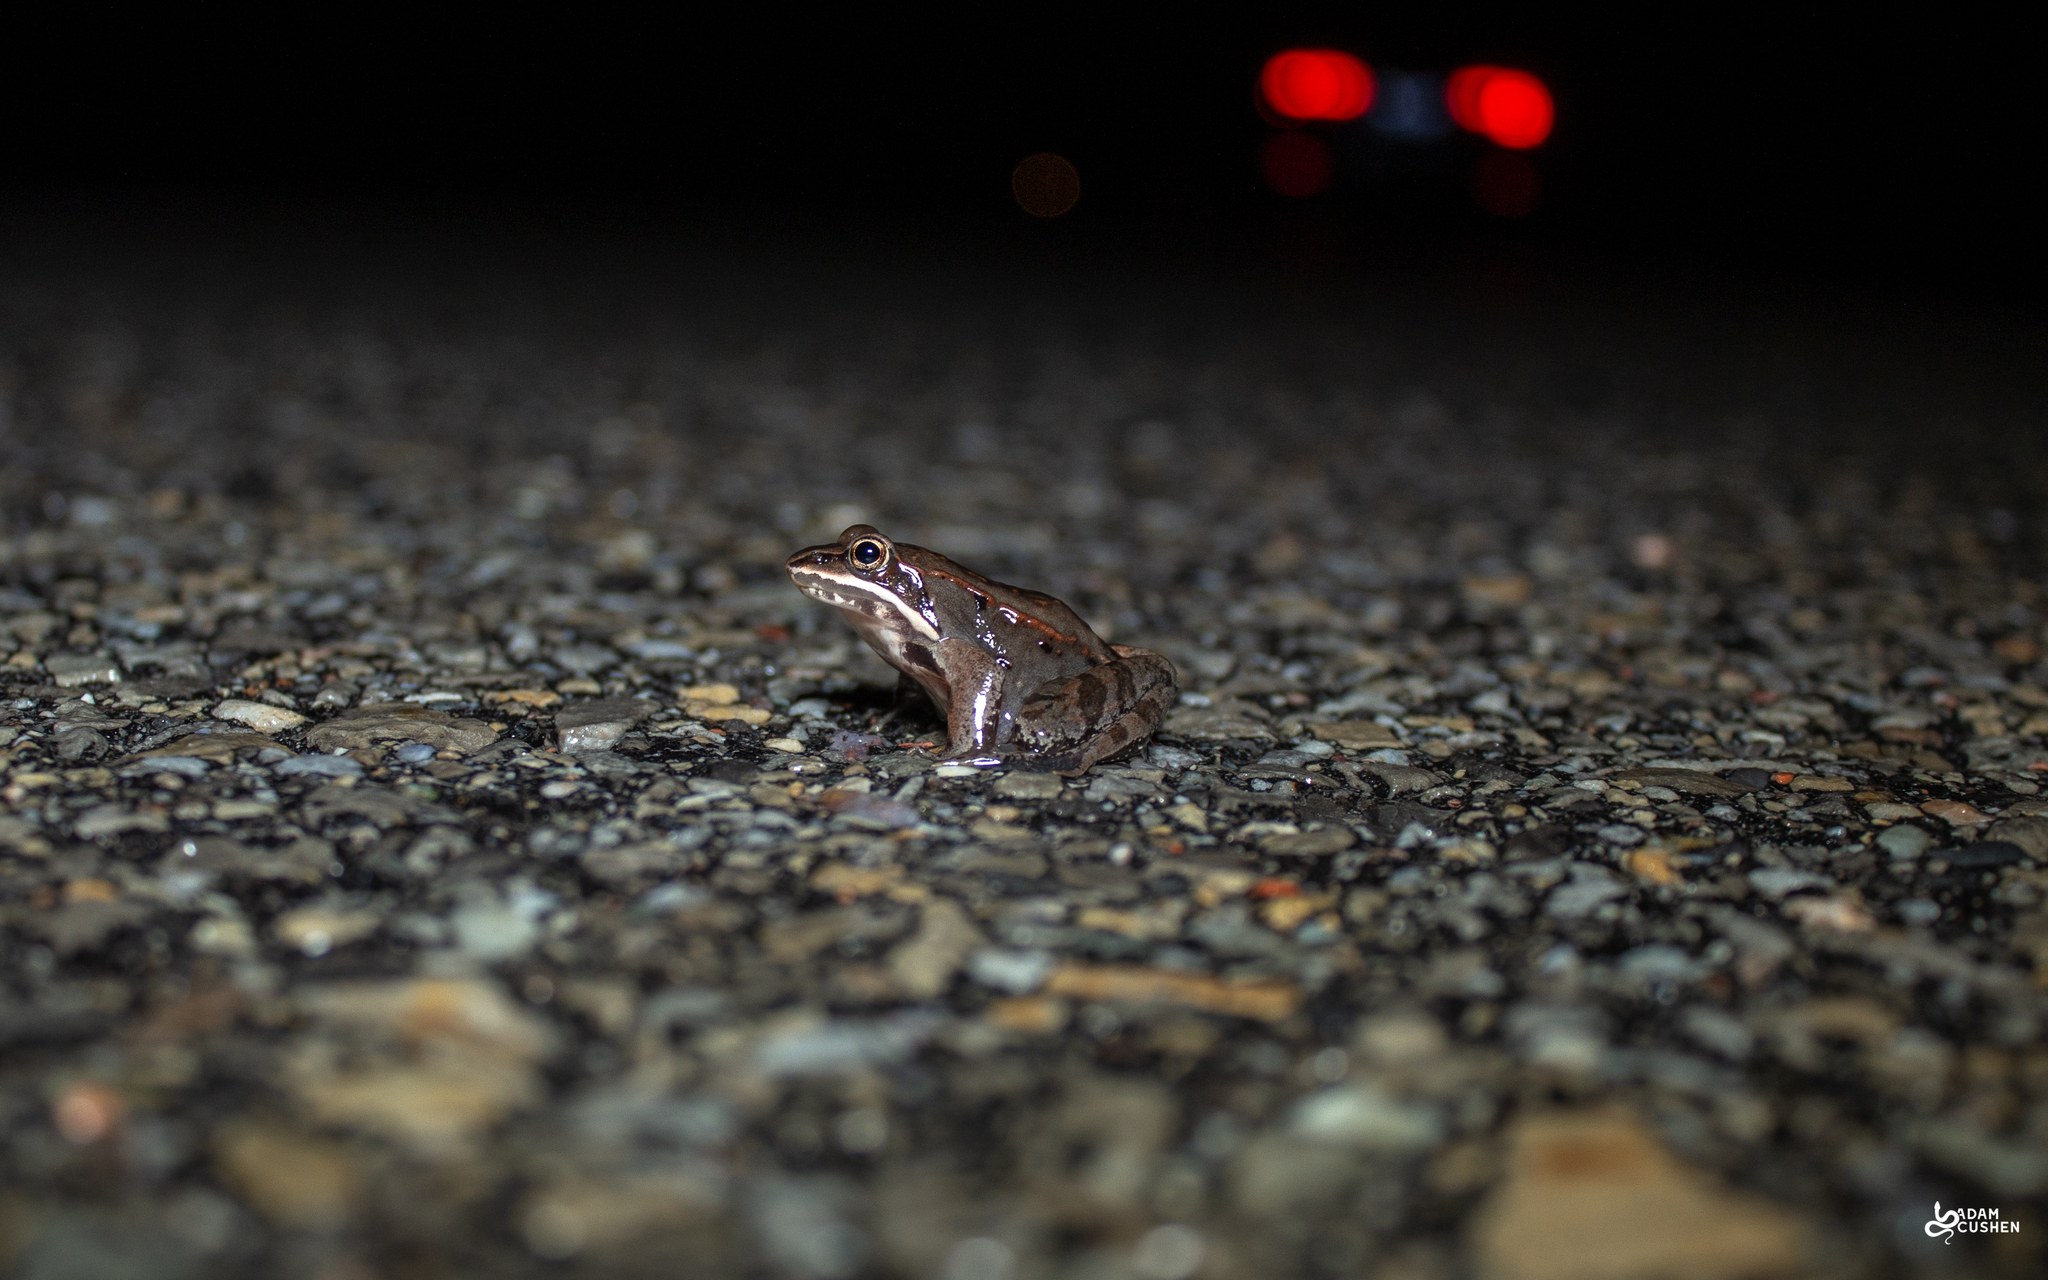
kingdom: Animalia
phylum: Chordata
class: Amphibia
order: Anura
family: Ranidae
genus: Lithobates
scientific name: Lithobates sylvaticus
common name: Wood frog
